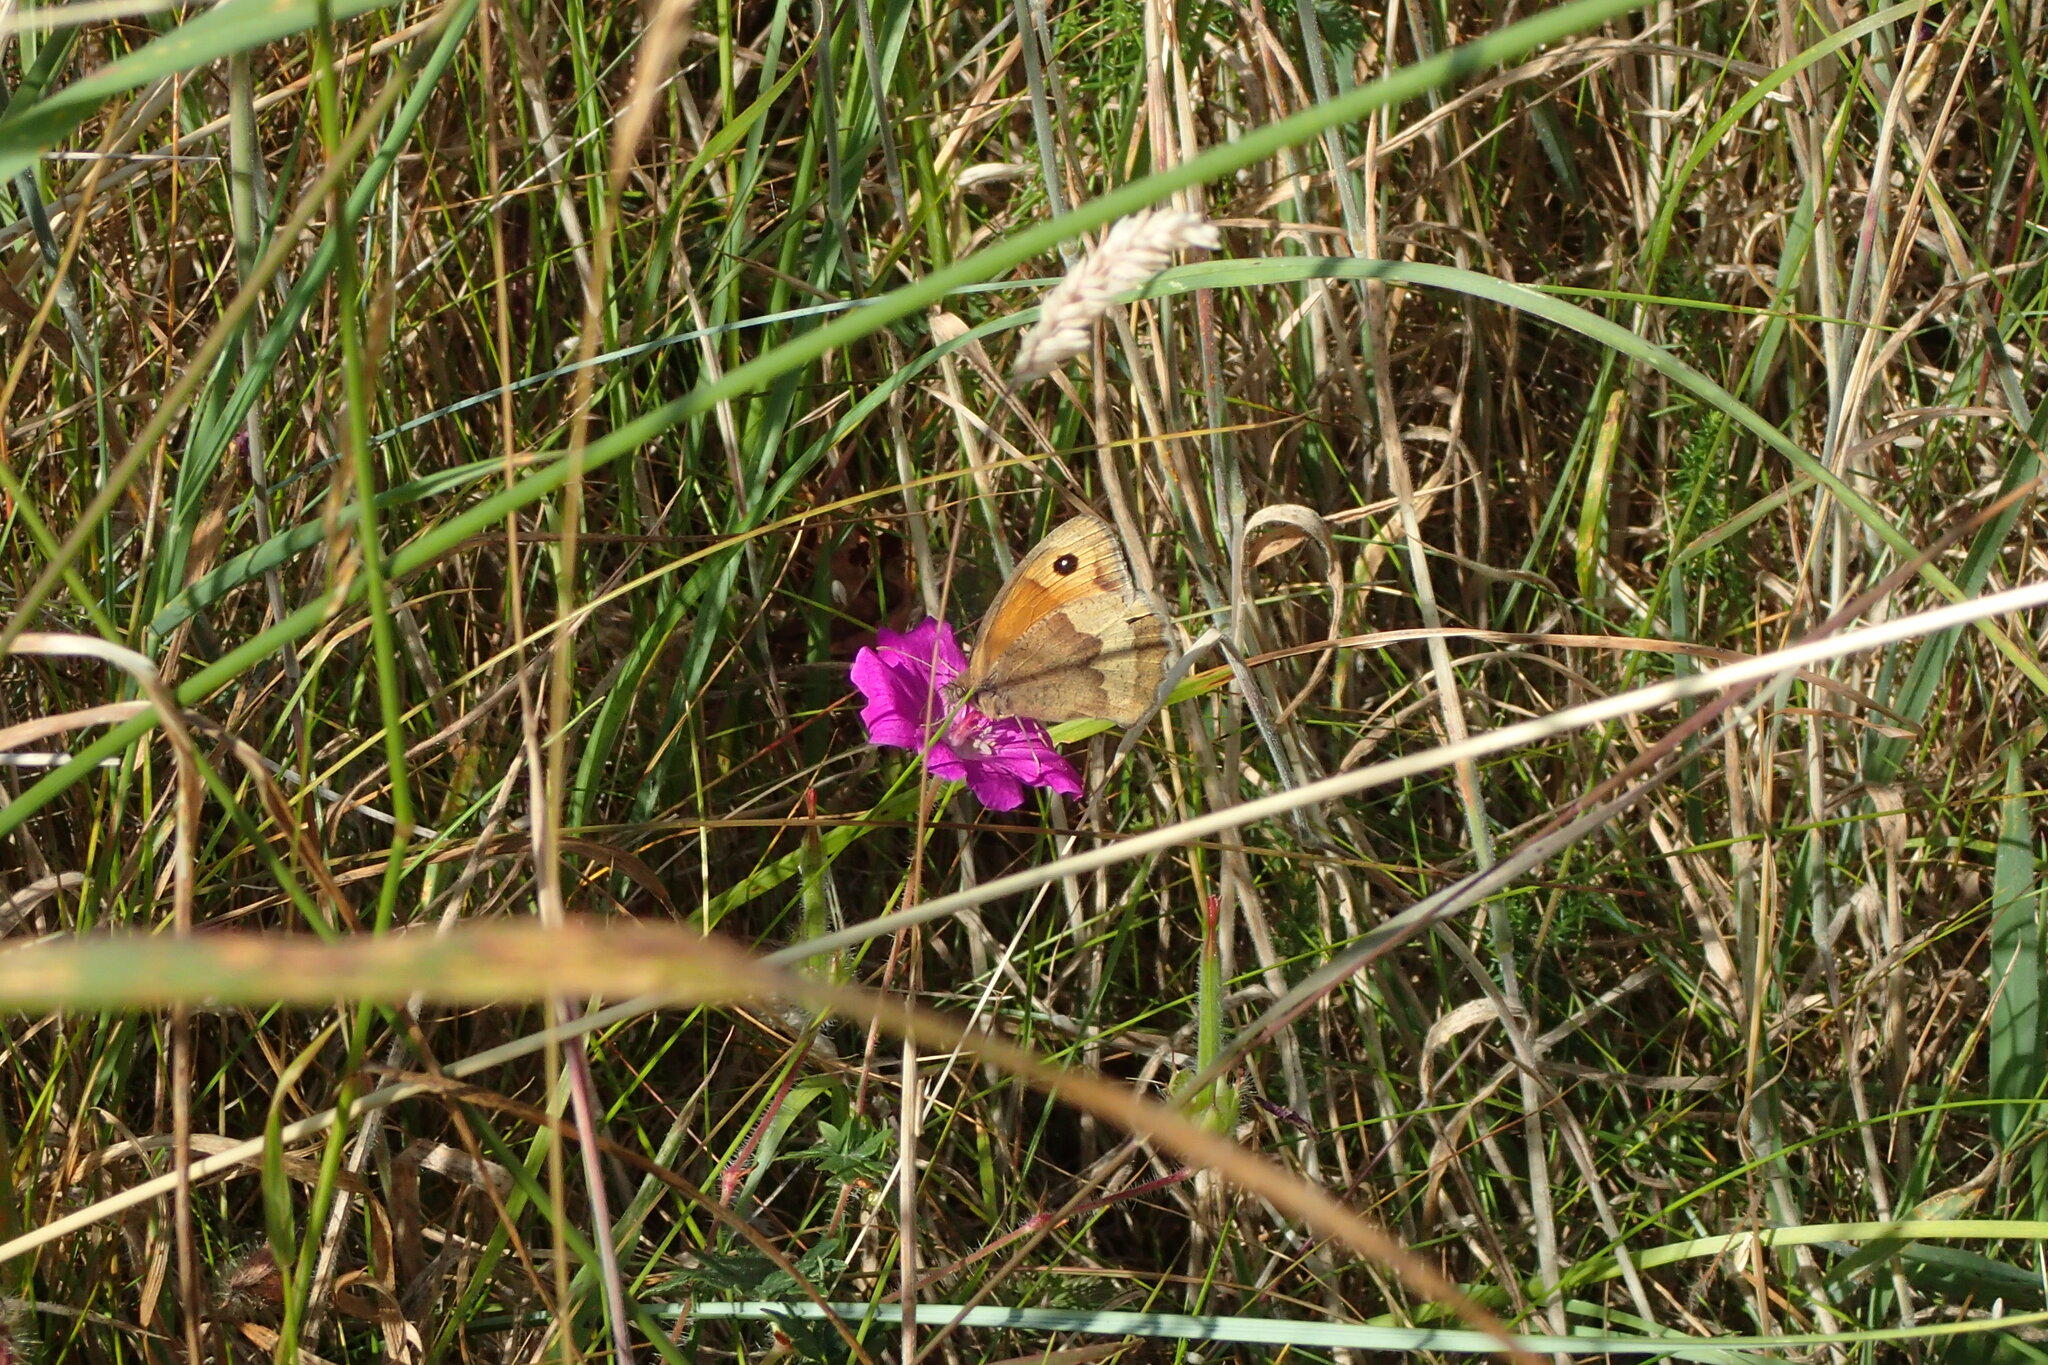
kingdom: Animalia
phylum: Arthropoda
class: Insecta
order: Lepidoptera
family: Nymphalidae
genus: Maniola
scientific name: Maniola jurtina
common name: Meadow brown
